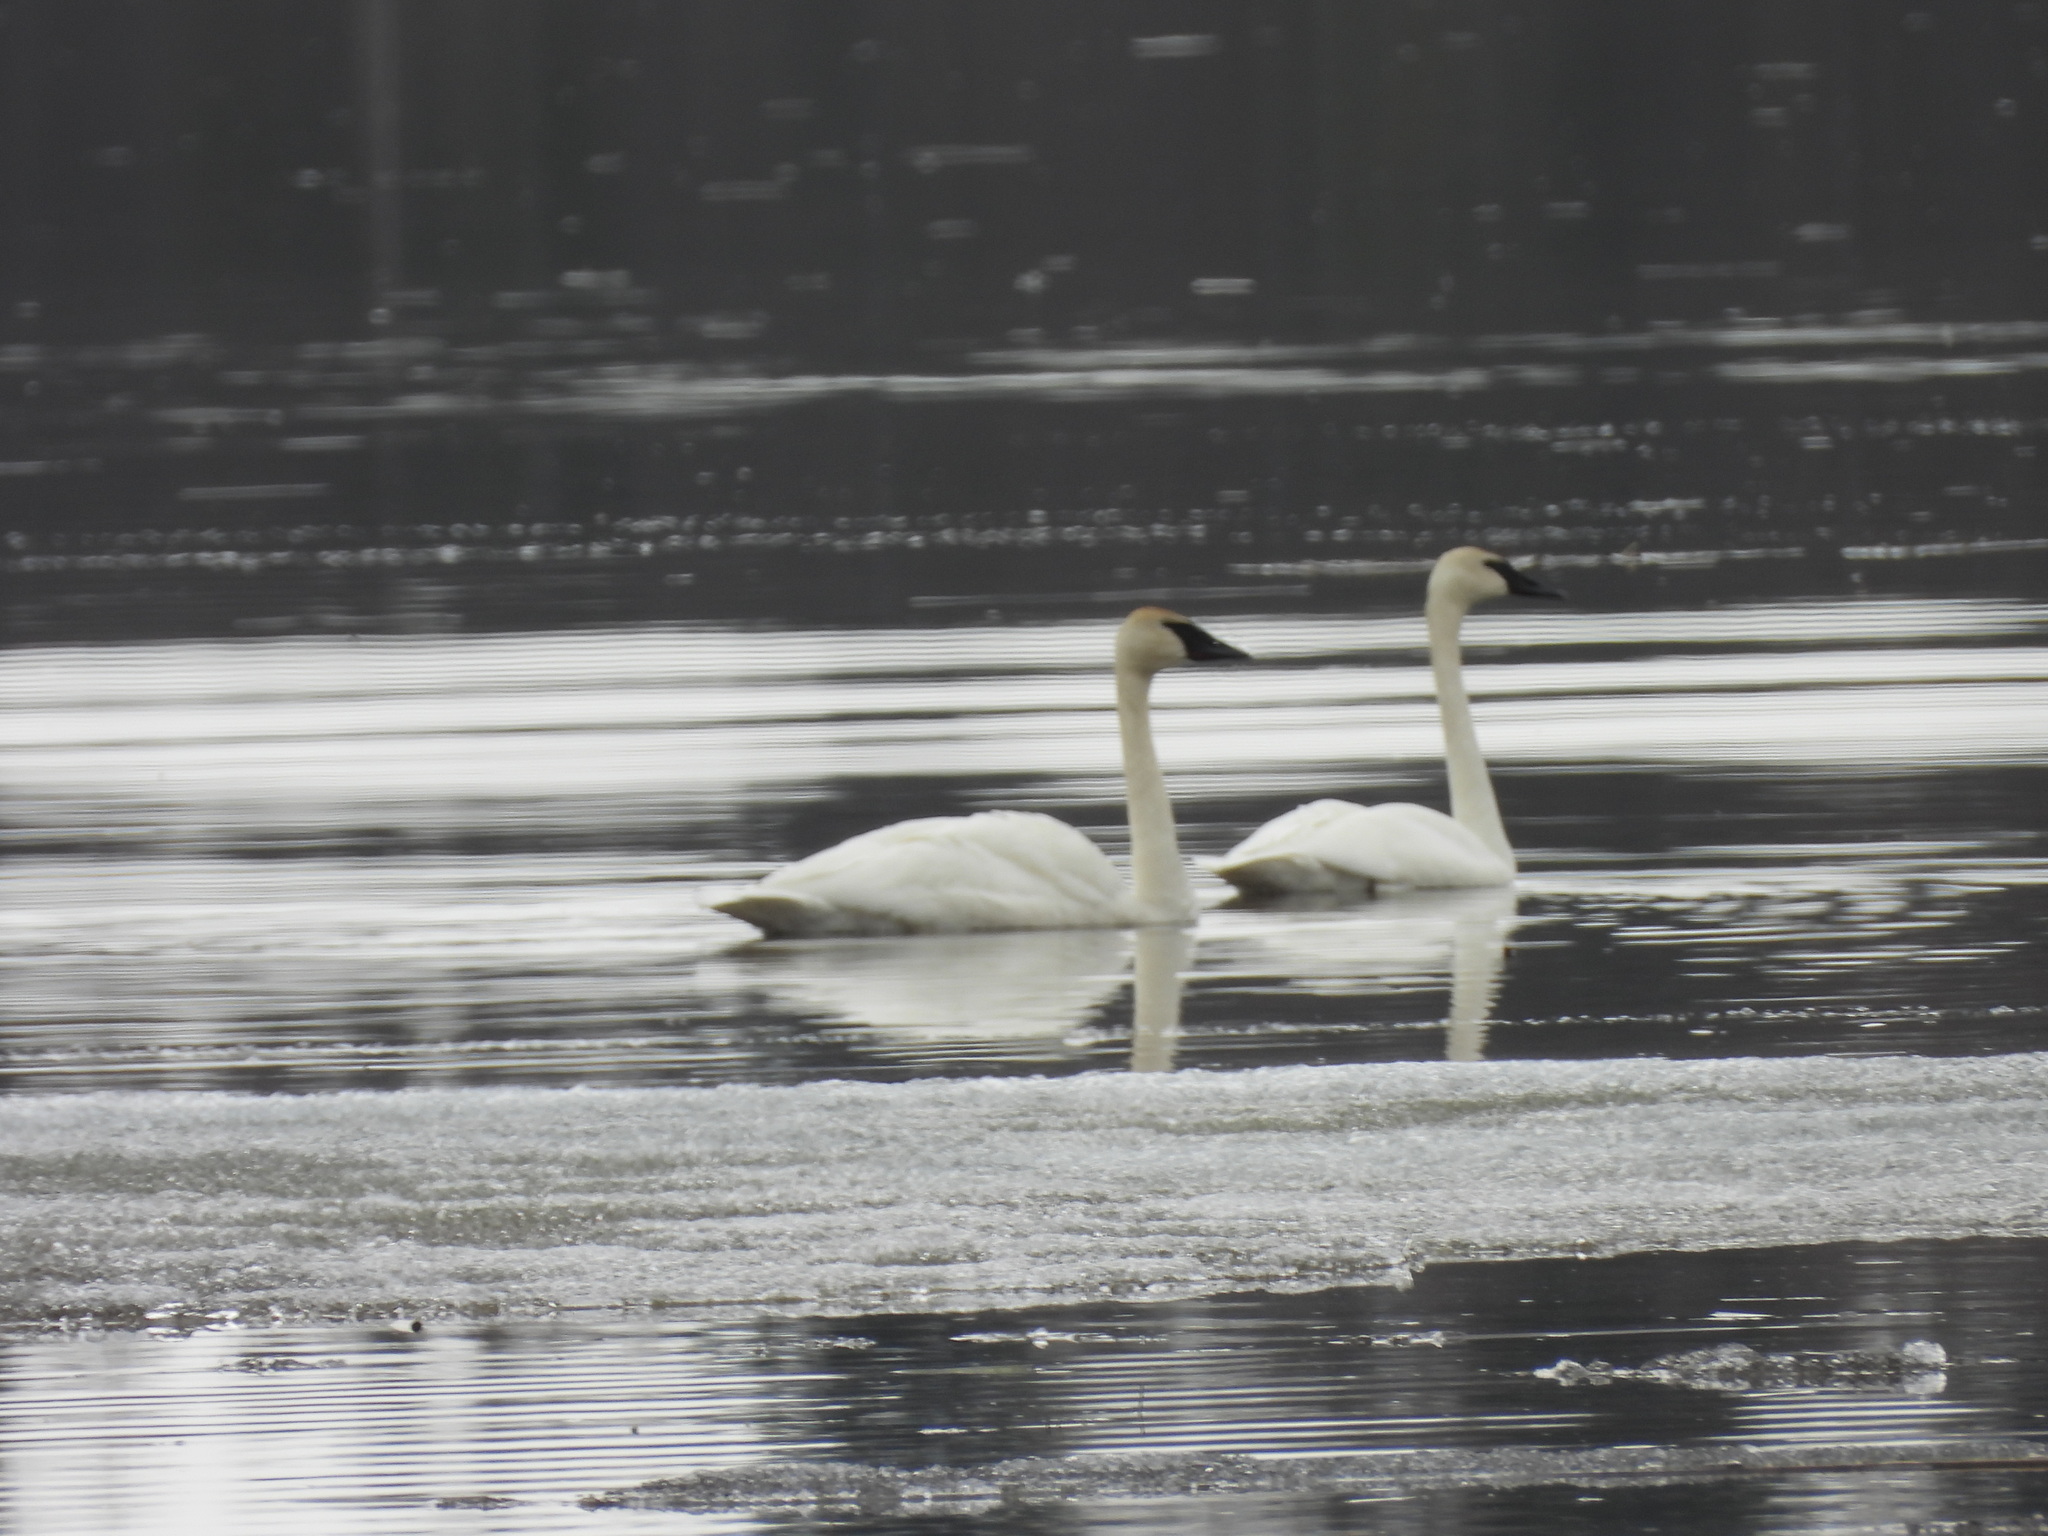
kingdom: Animalia
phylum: Chordata
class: Aves
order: Anseriformes
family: Anatidae
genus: Cygnus
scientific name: Cygnus buccinator
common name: Trumpeter swan
